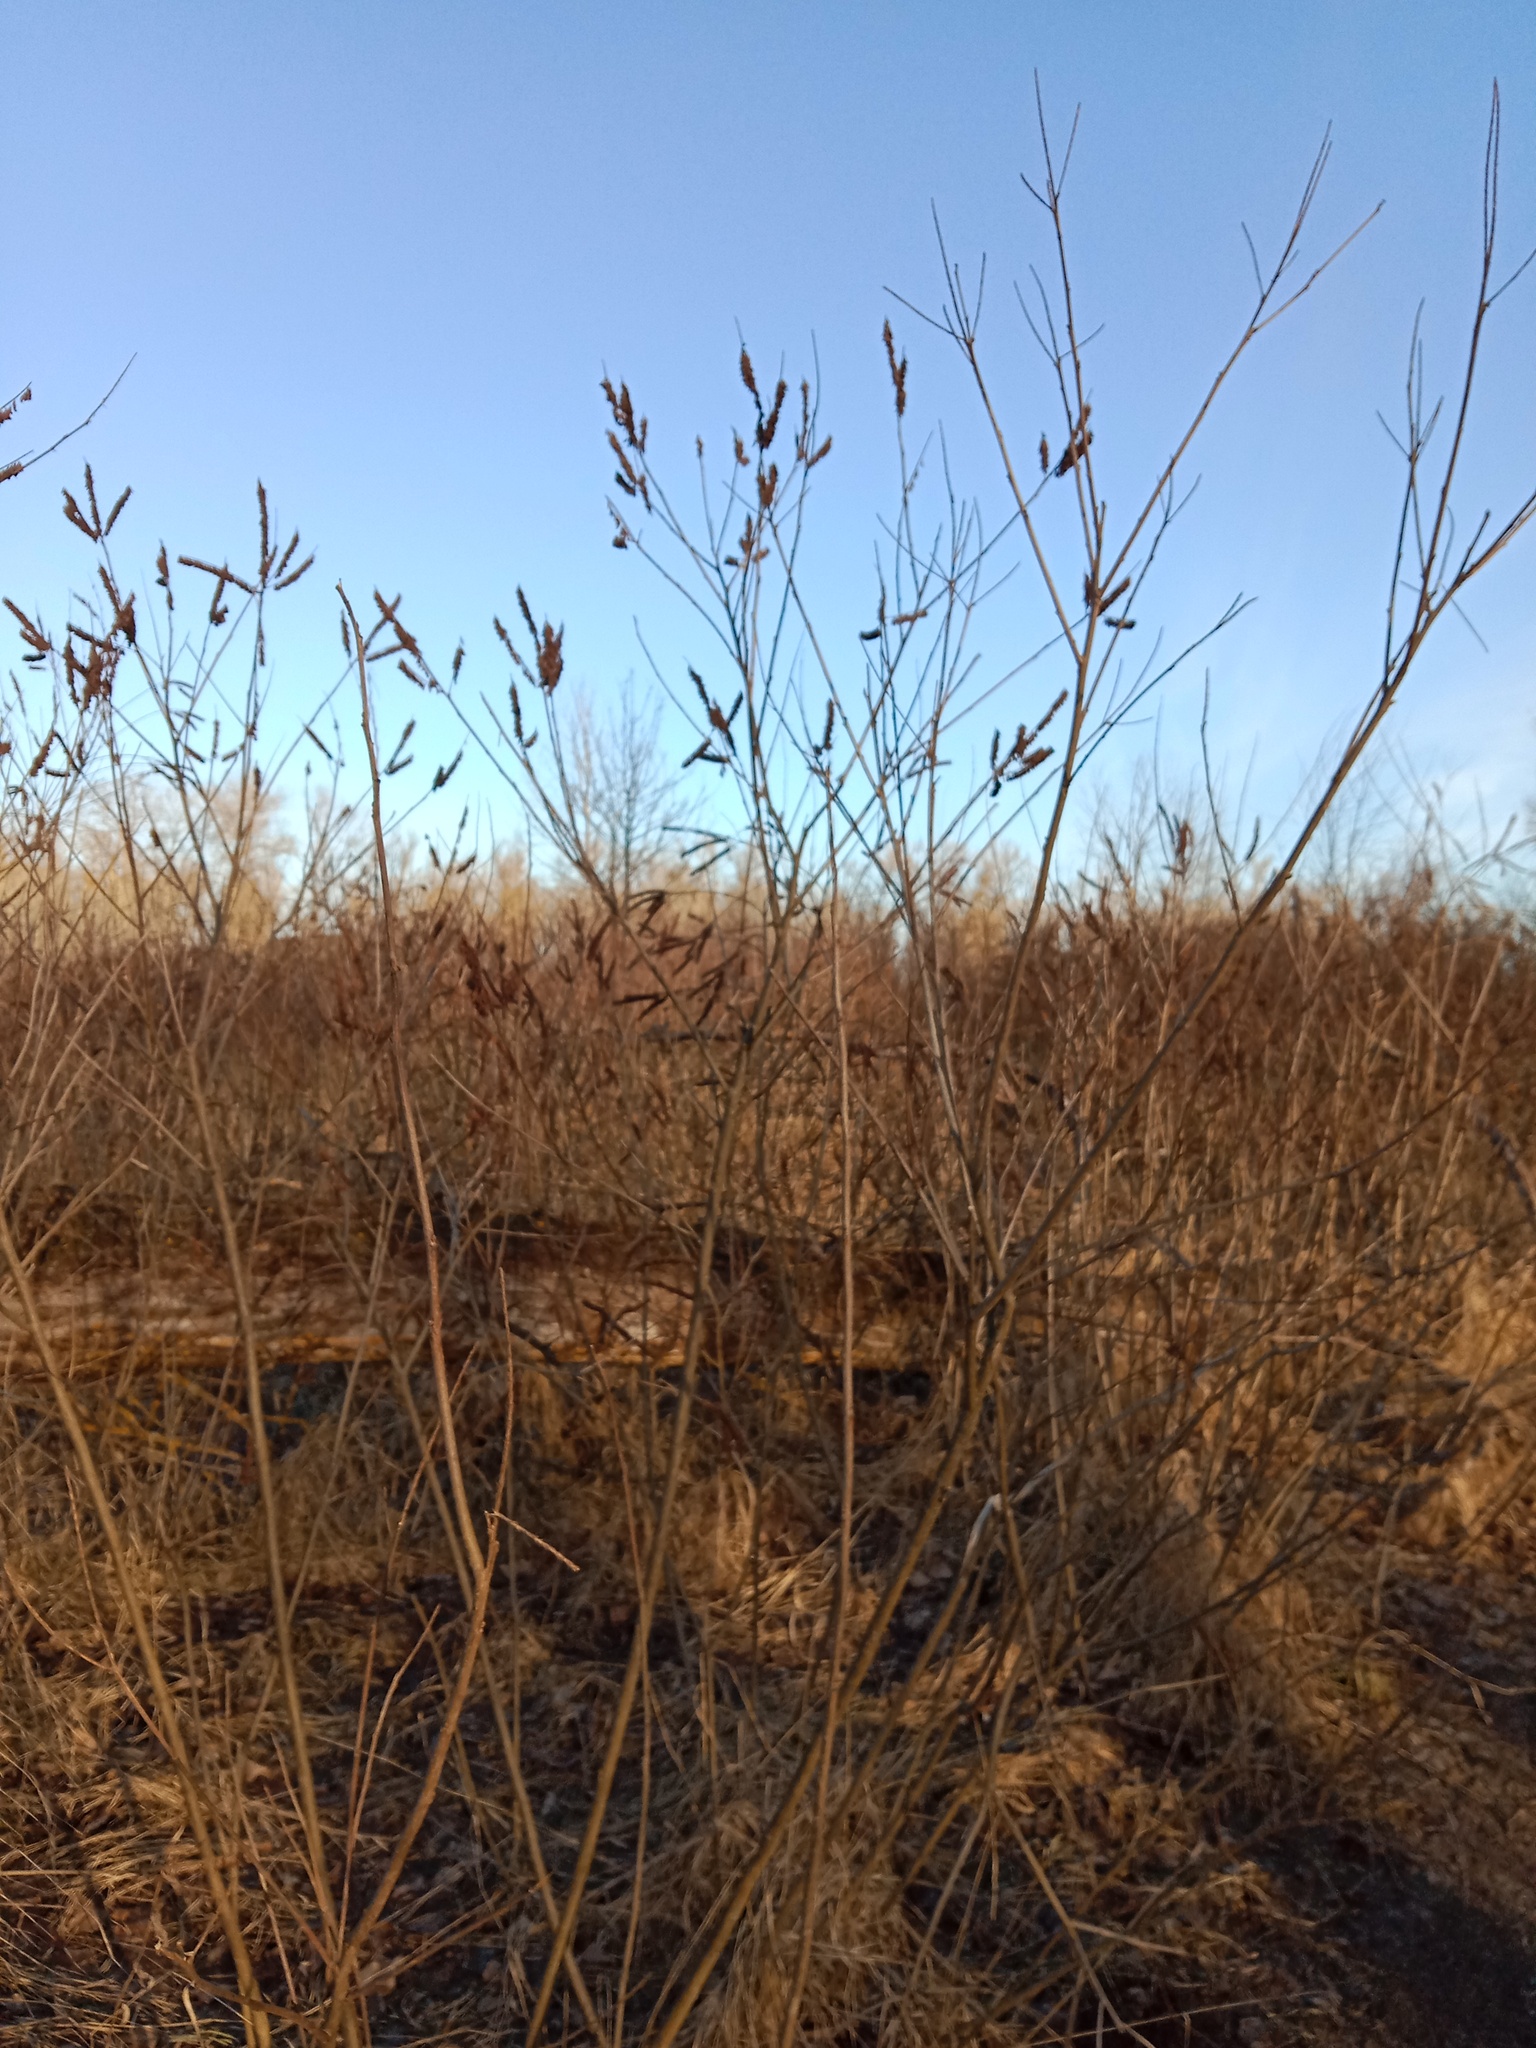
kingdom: Plantae
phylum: Tracheophyta
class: Magnoliopsida
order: Fabales
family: Fabaceae
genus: Amorpha
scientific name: Amorpha fruticosa
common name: False indigo
